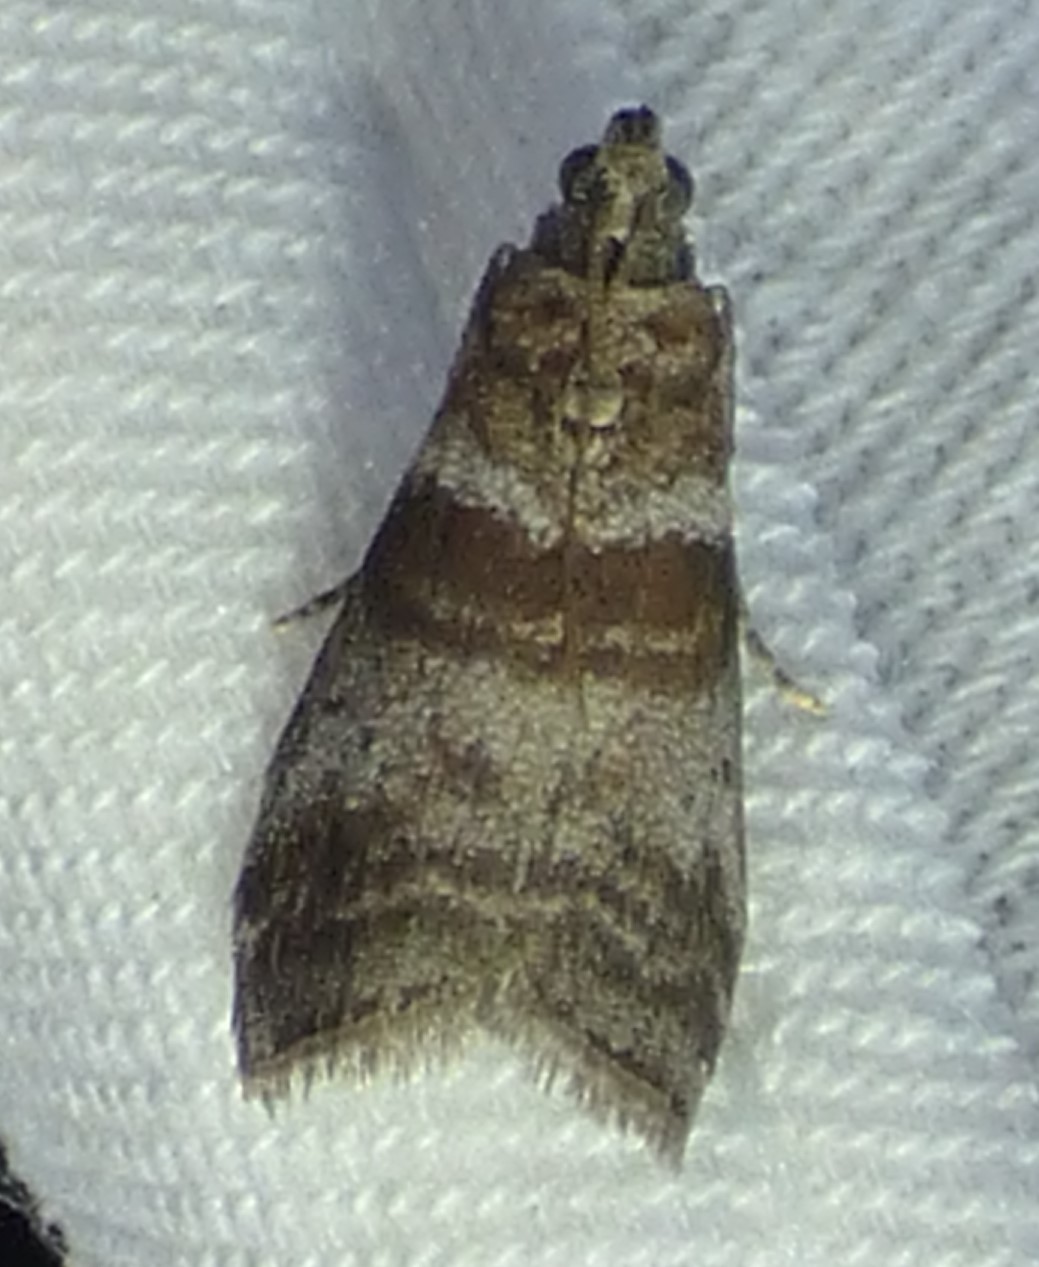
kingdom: Animalia
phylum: Arthropoda
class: Insecta
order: Lepidoptera
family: Pyralidae
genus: Sciota
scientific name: Sciota uvinella
